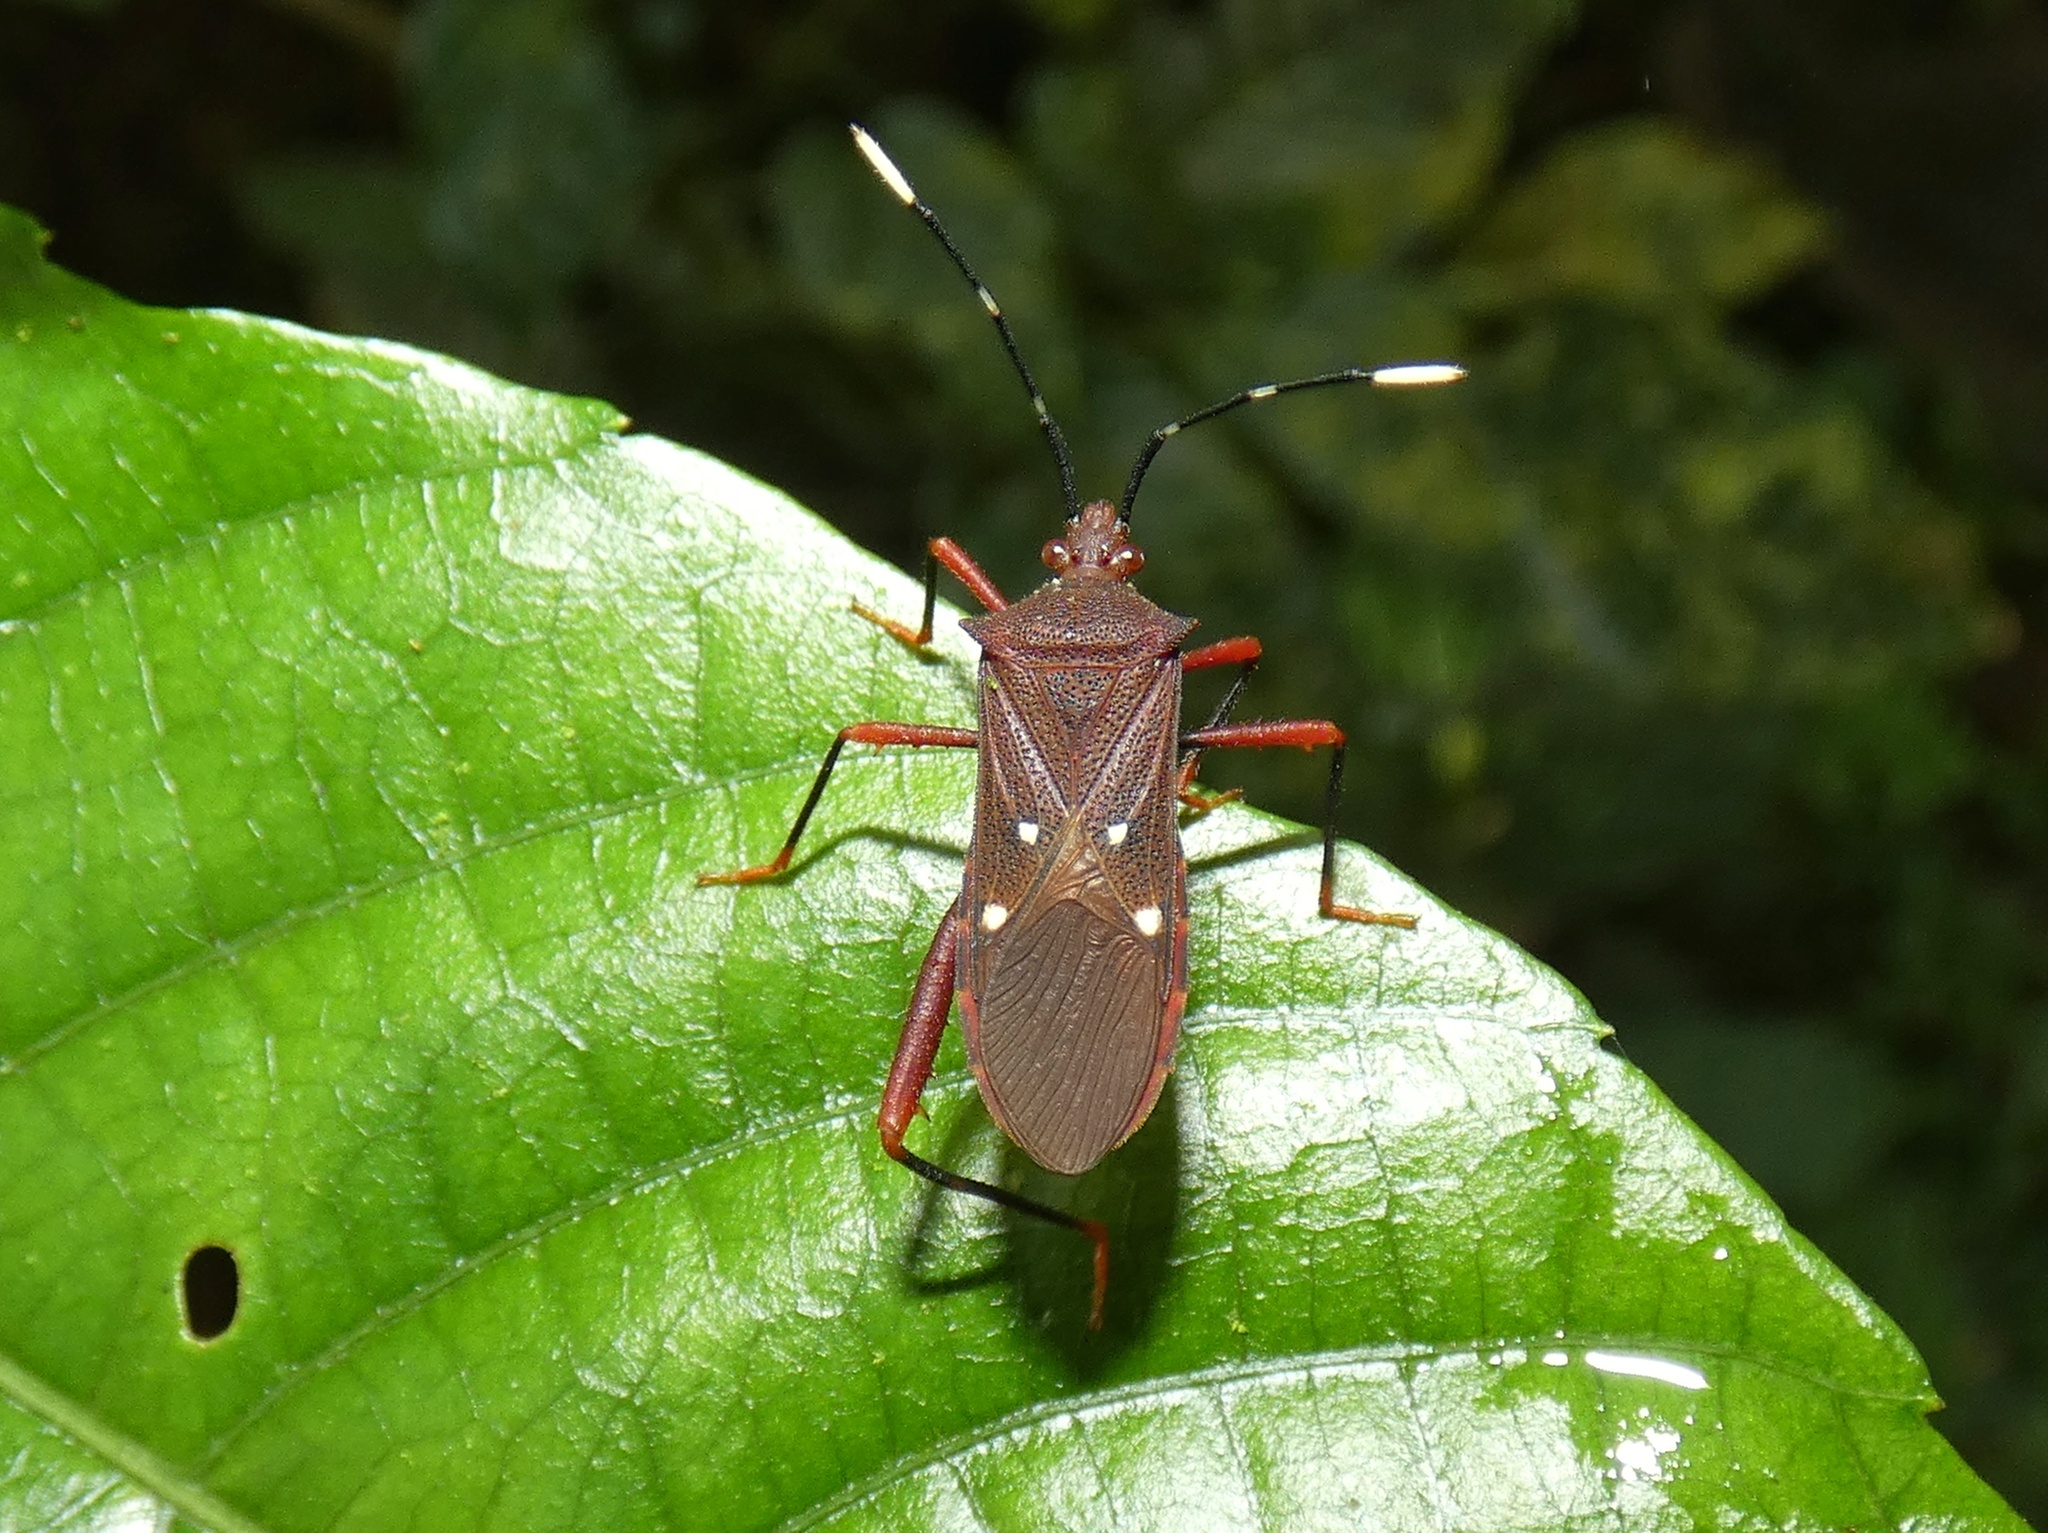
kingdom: Animalia
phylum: Arthropoda
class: Insecta
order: Hemiptera
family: Coreidae
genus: Leptoscelis
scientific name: Leptoscelis quadrisignatus
